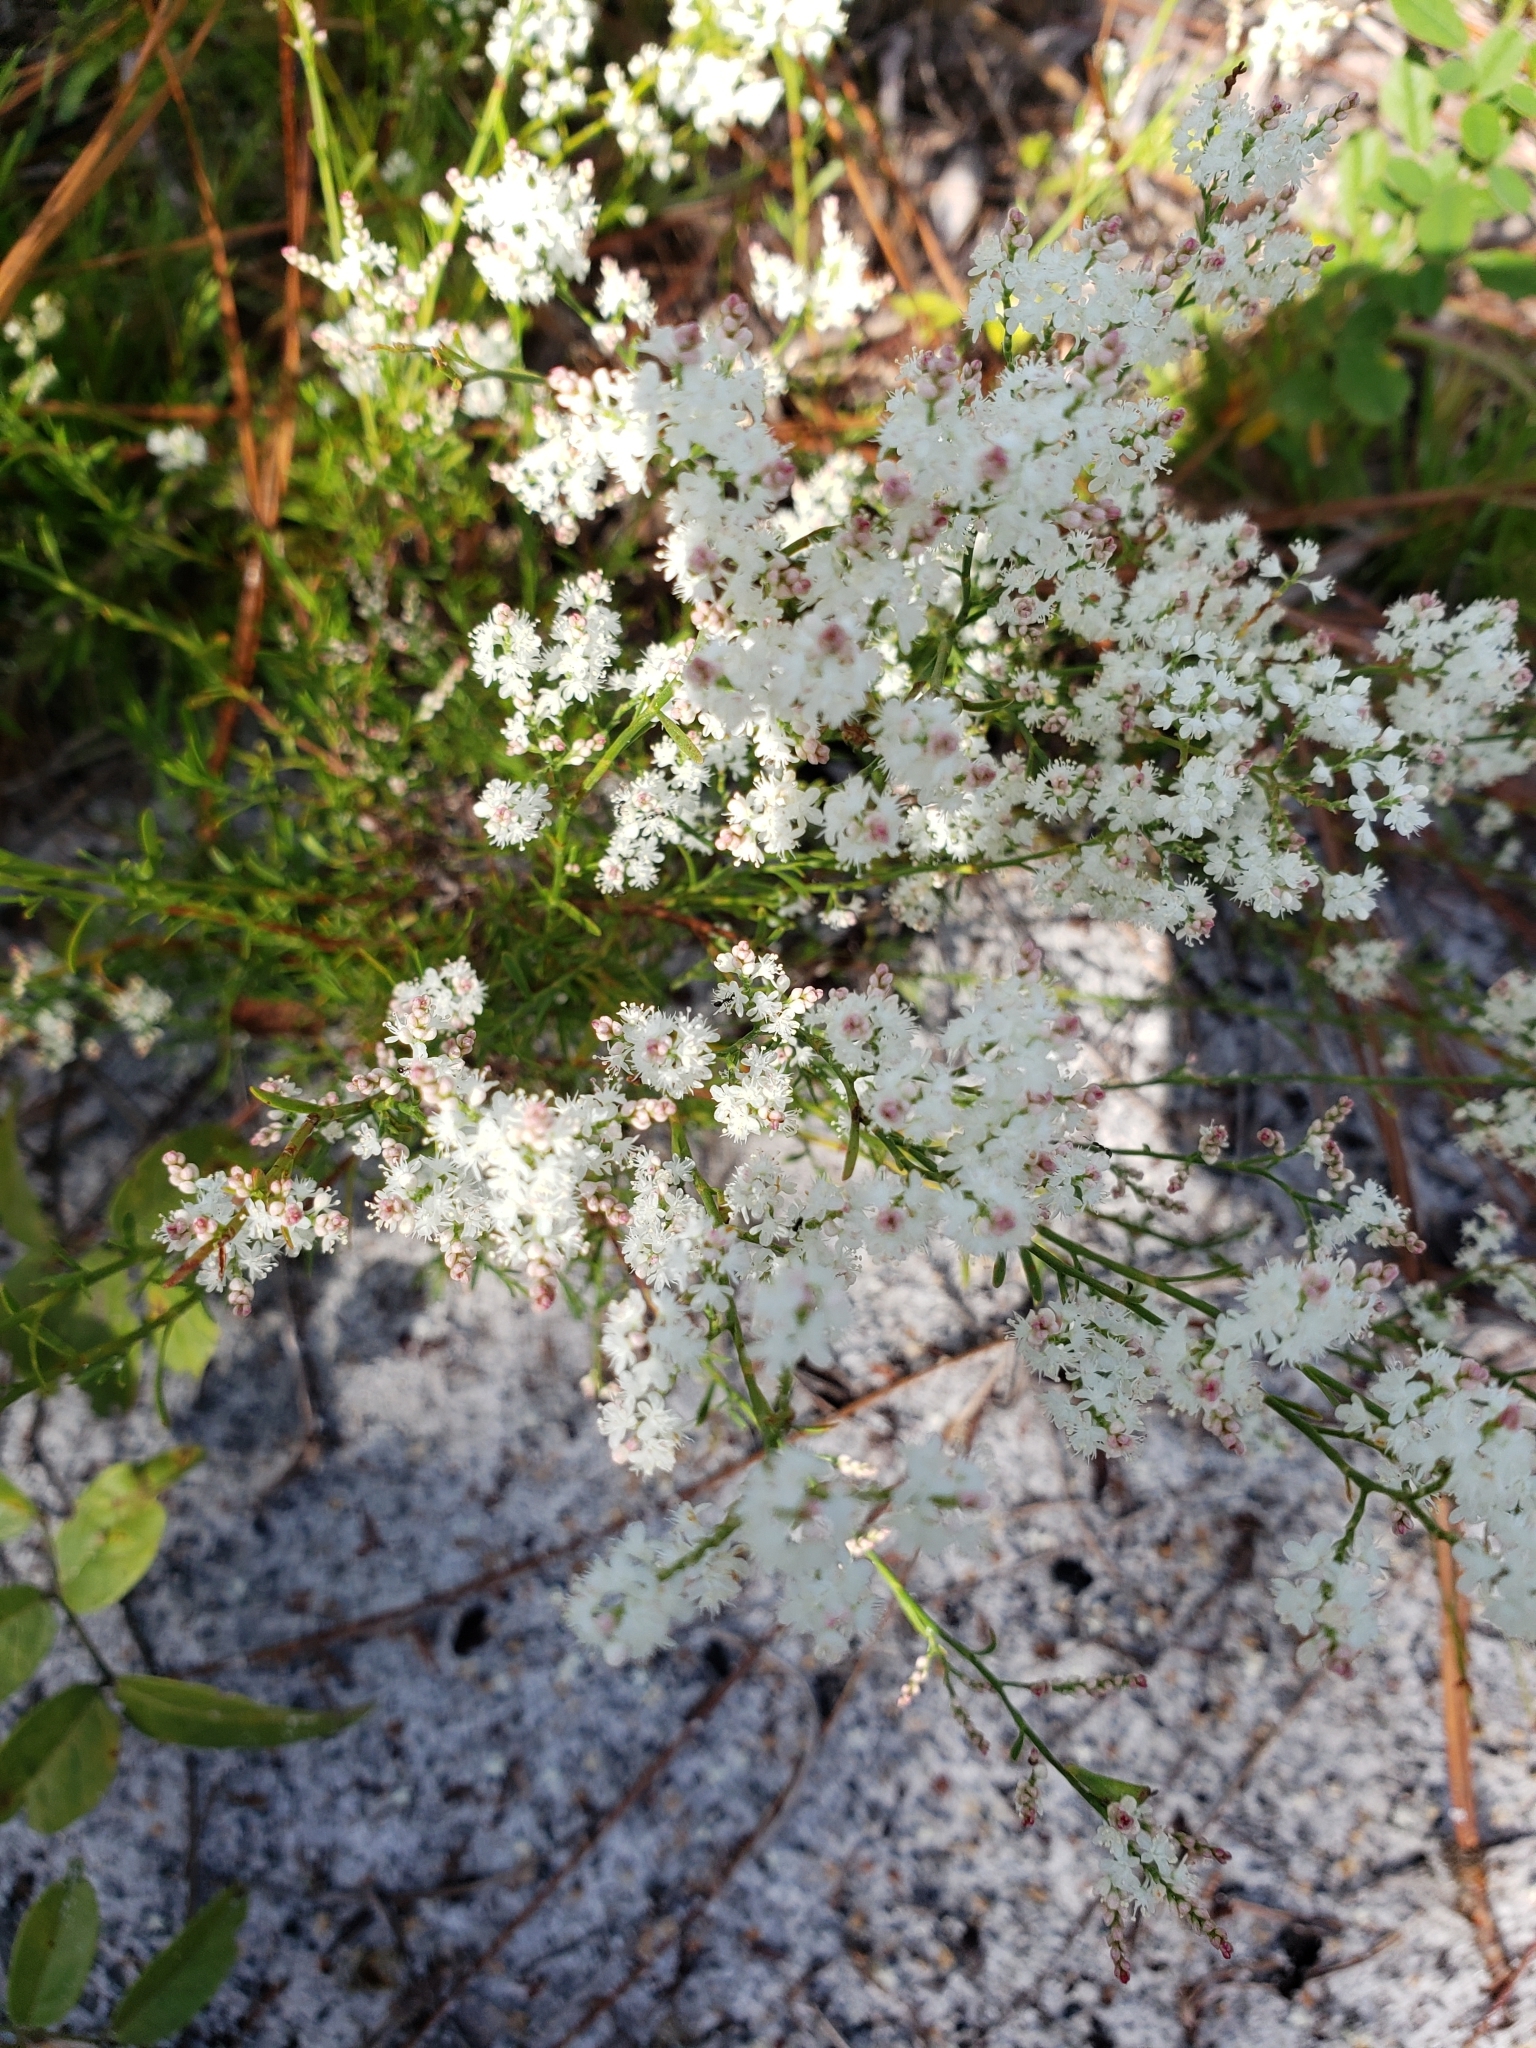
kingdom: Plantae
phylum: Tracheophyta
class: Magnoliopsida
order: Caryophyllales
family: Polygonaceae
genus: Polygonella
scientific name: Polygonella polygama
